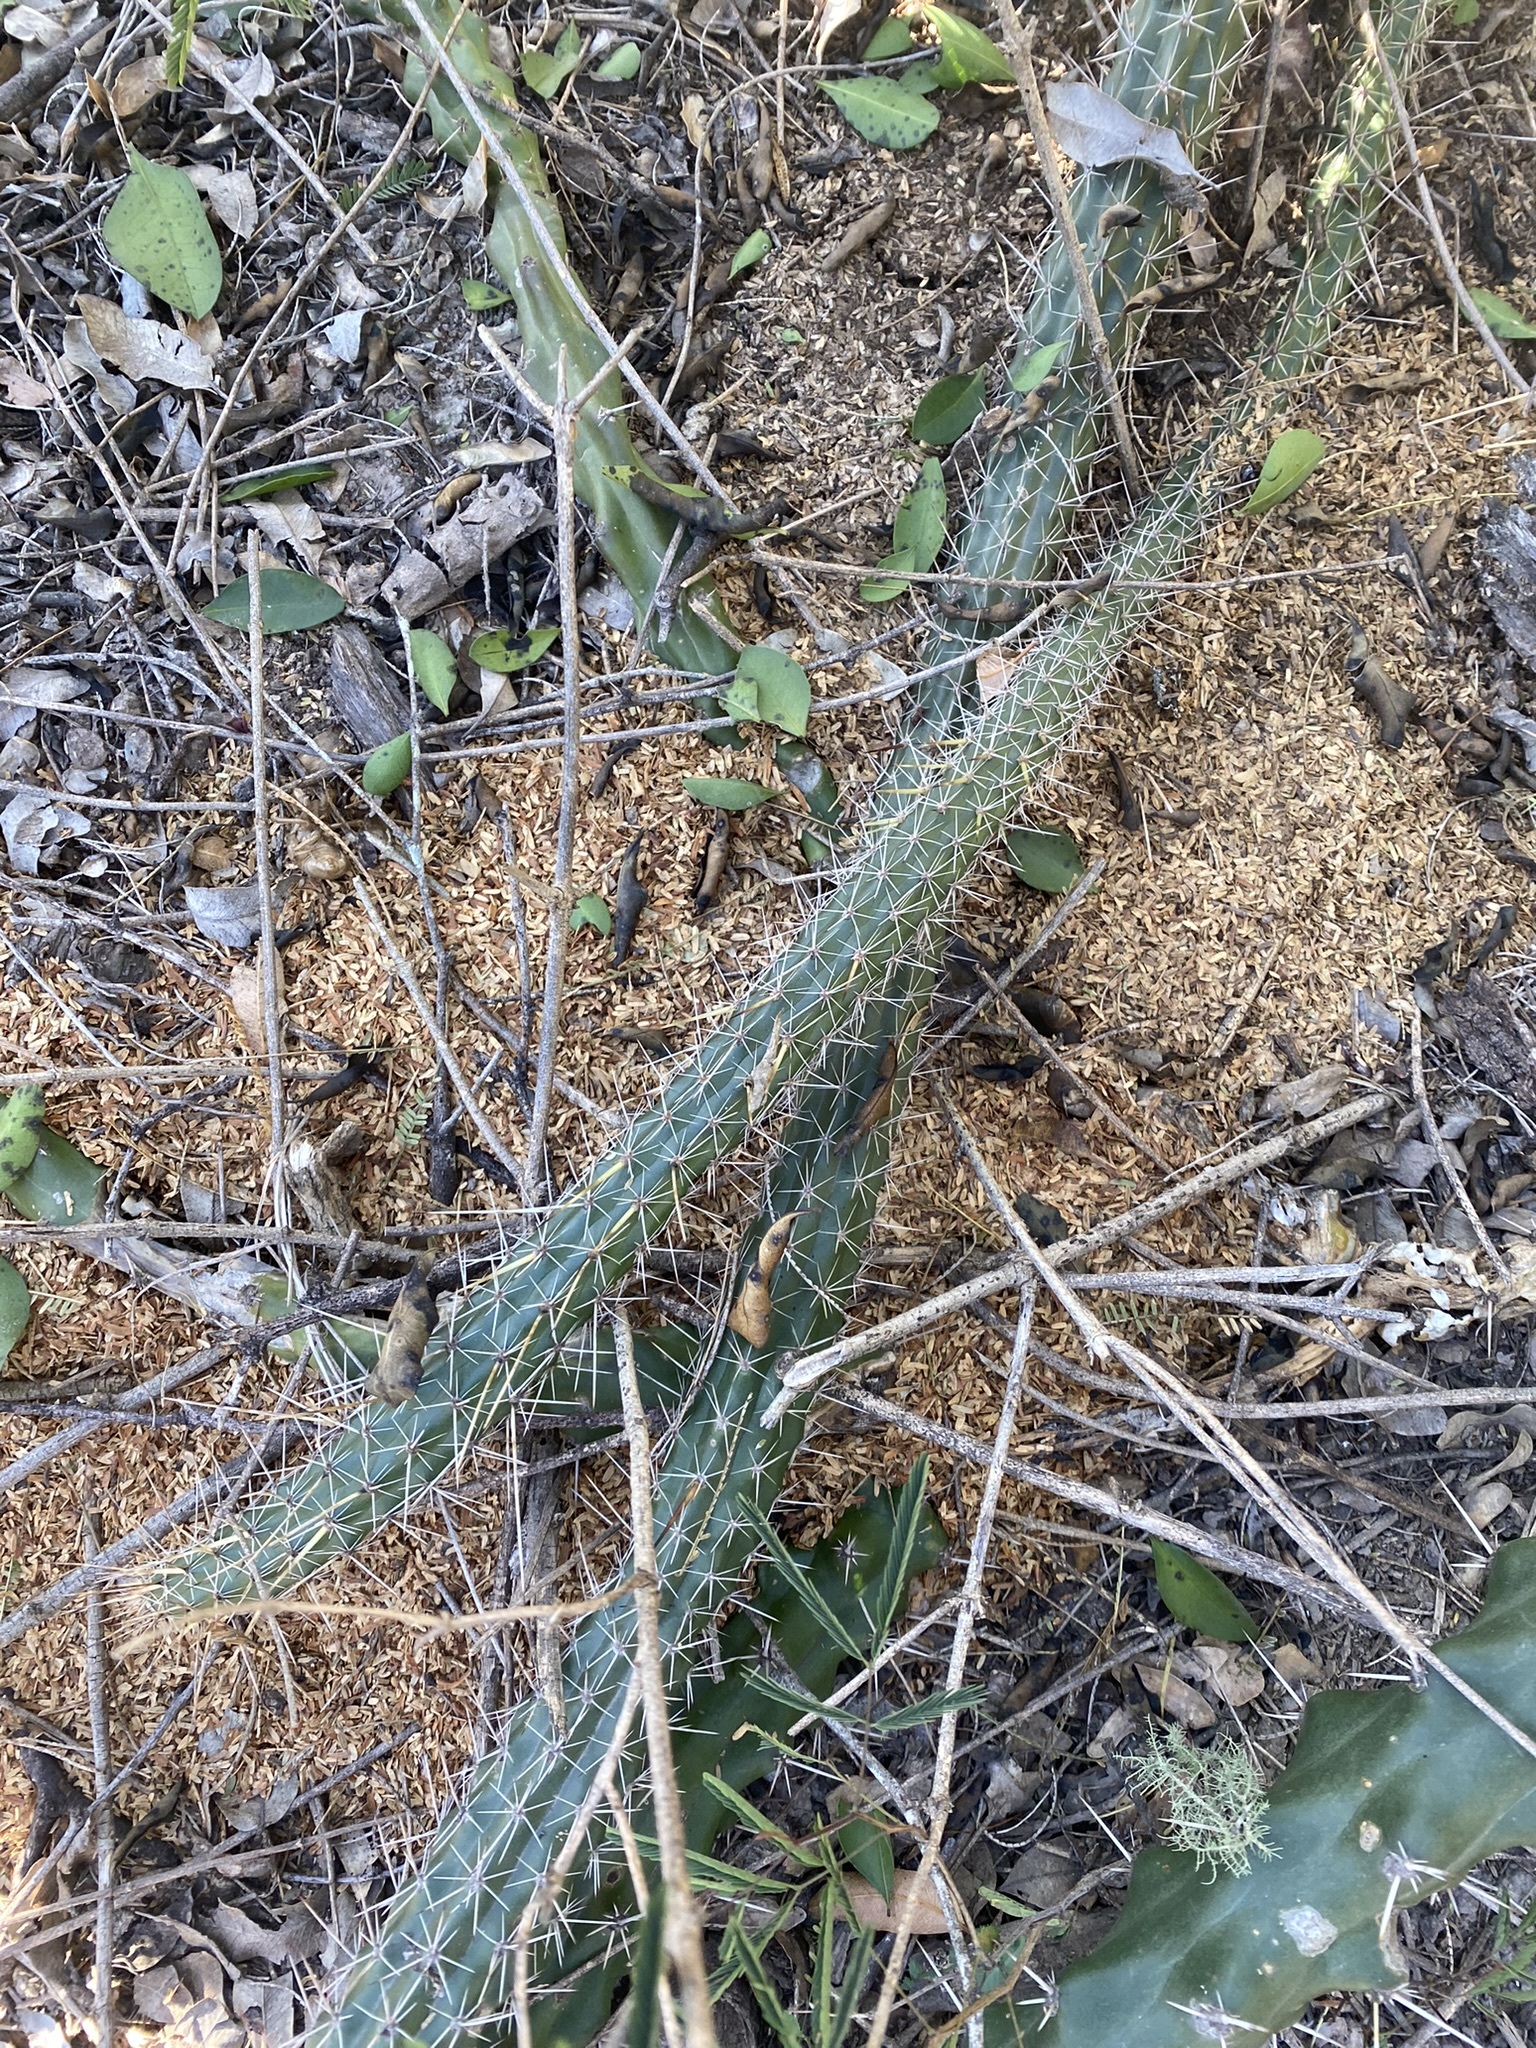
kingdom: Plantae
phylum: Tracheophyta
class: Magnoliopsida
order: Caryophyllales
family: Cactaceae
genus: Praecereus
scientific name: Praecereus euchlorus
